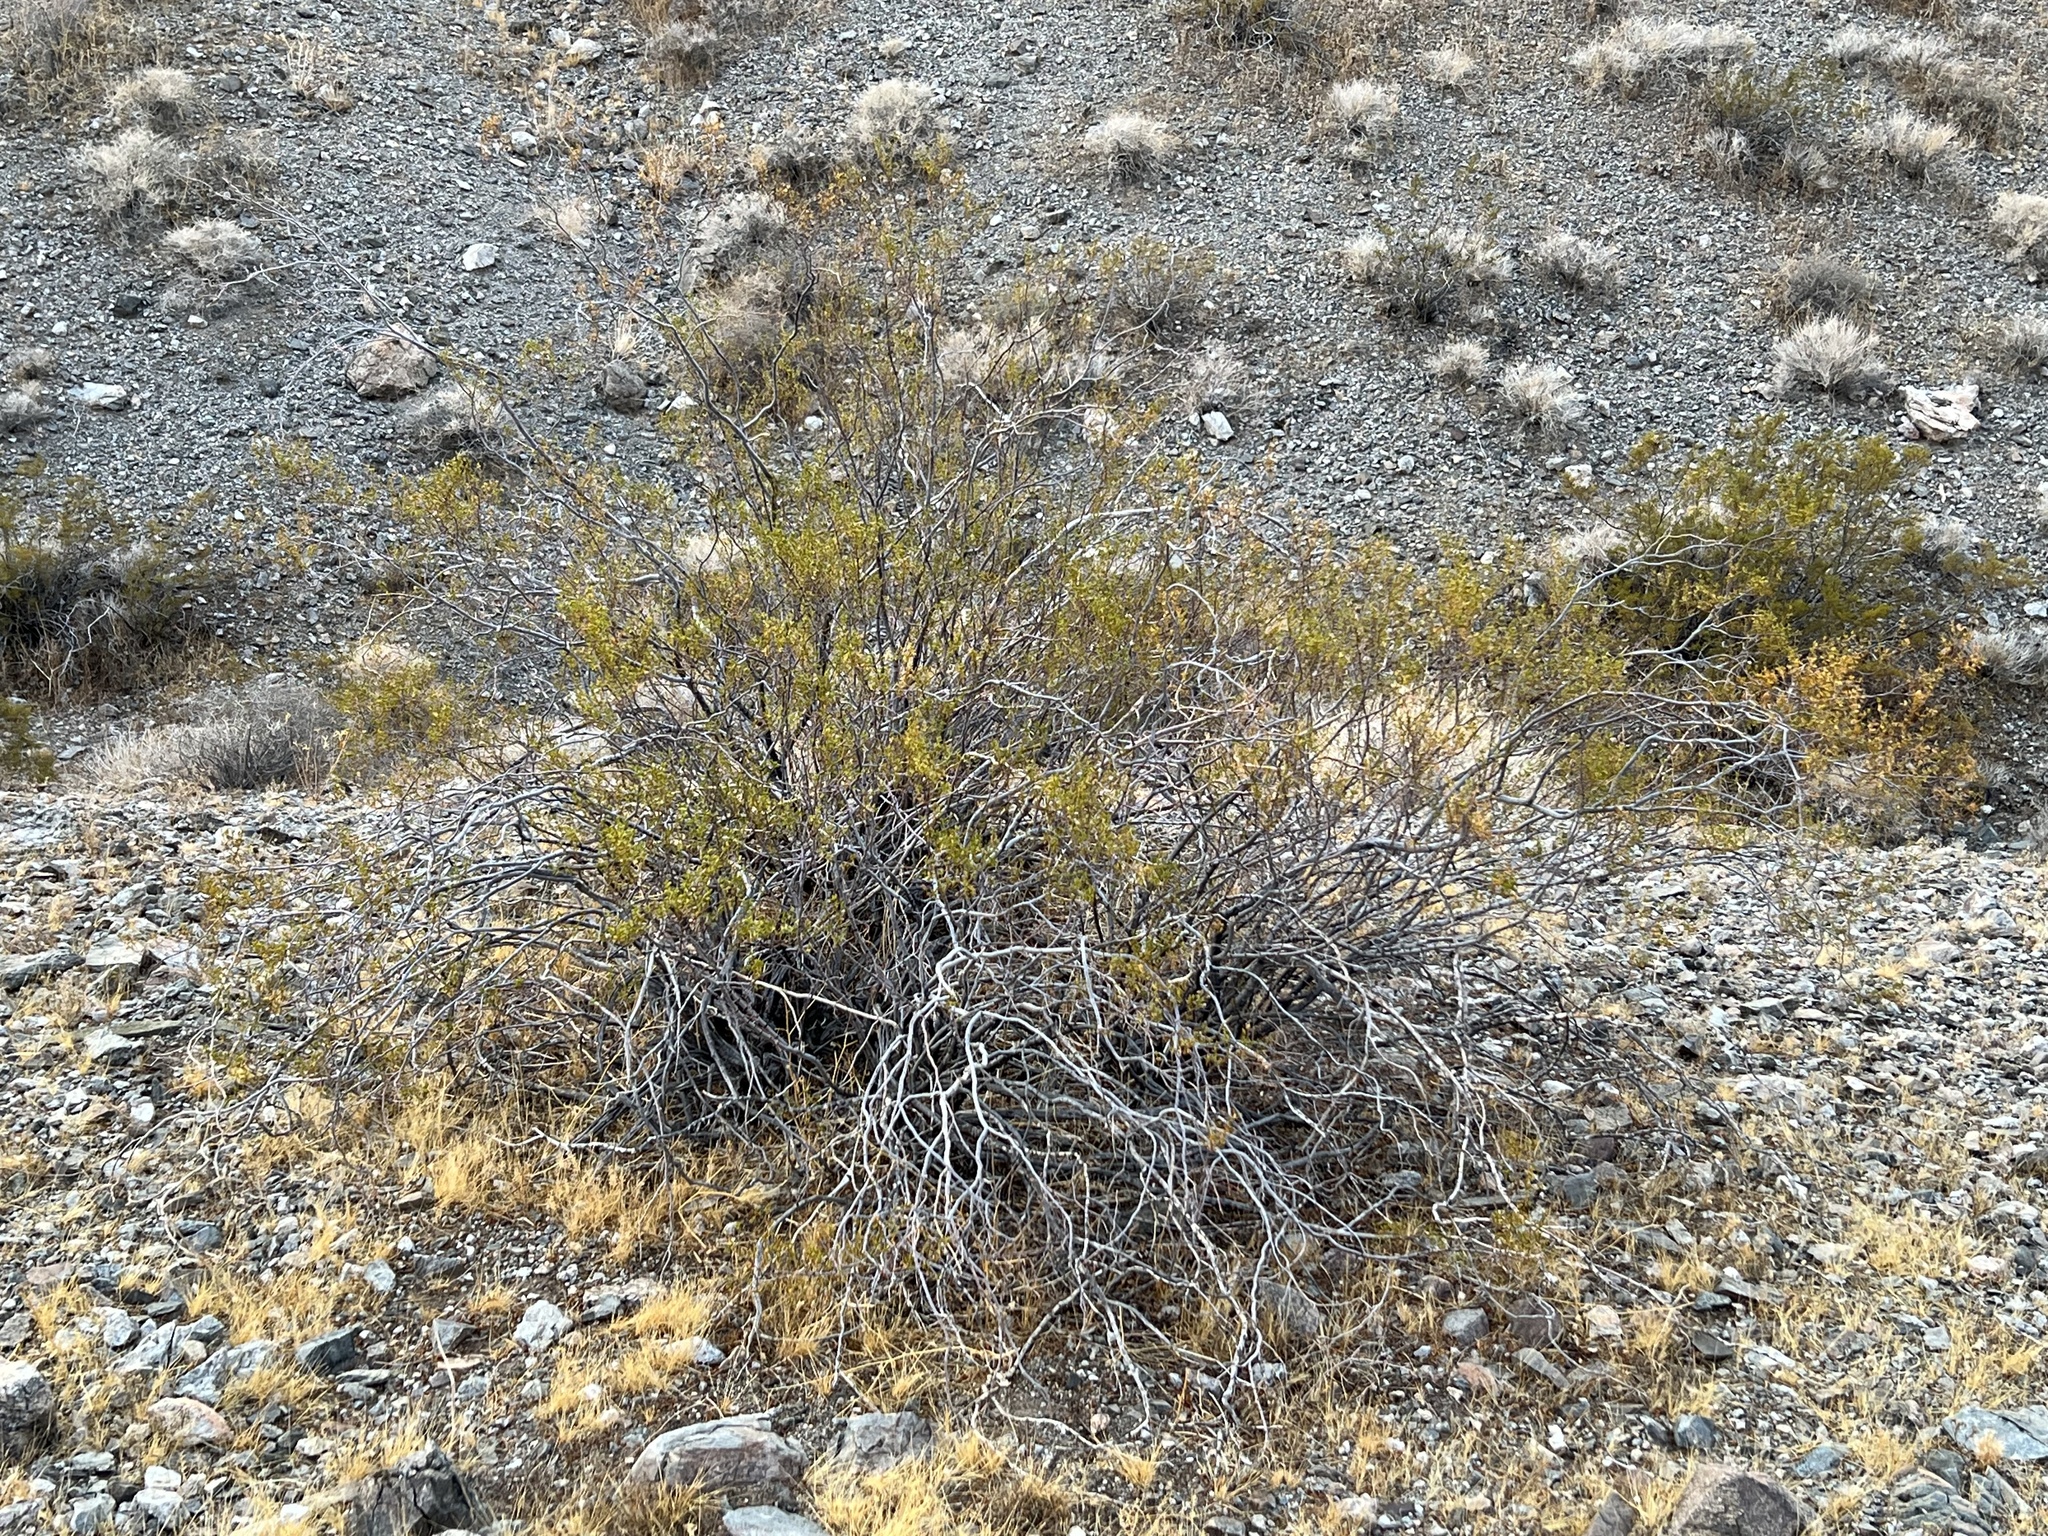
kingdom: Plantae
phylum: Tracheophyta
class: Magnoliopsida
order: Zygophyllales
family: Zygophyllaceae
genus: Larrea
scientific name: Larrea tridentata
